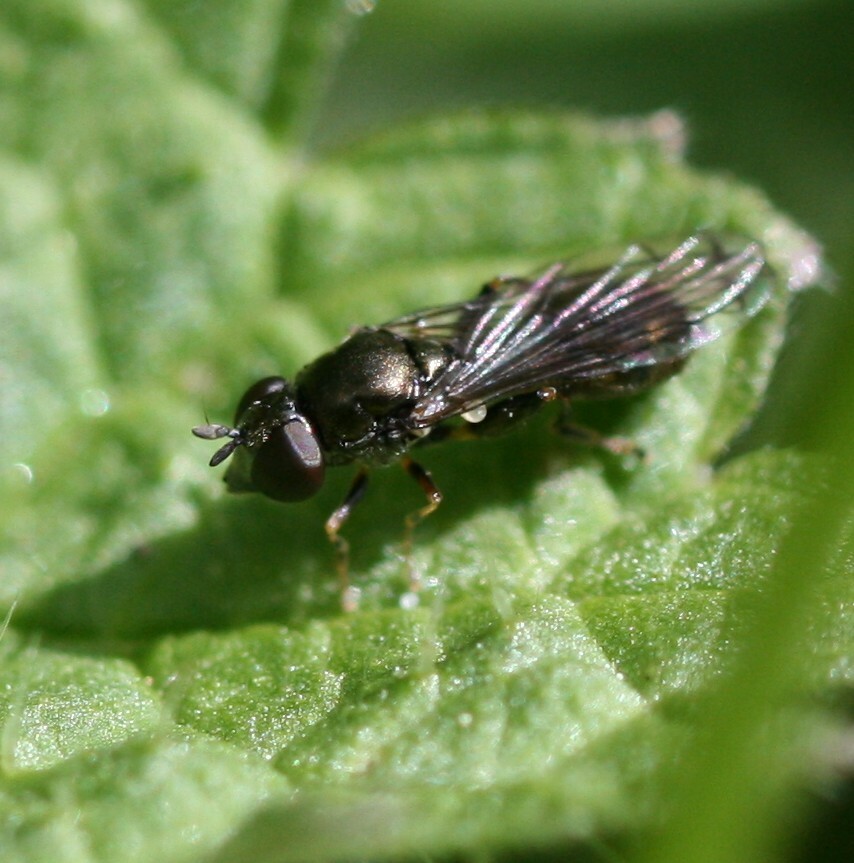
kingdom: Animalia
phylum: Arthropoda
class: Insecta
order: Diptera
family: Syrphidae
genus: Neoascia
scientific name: Neoascia
